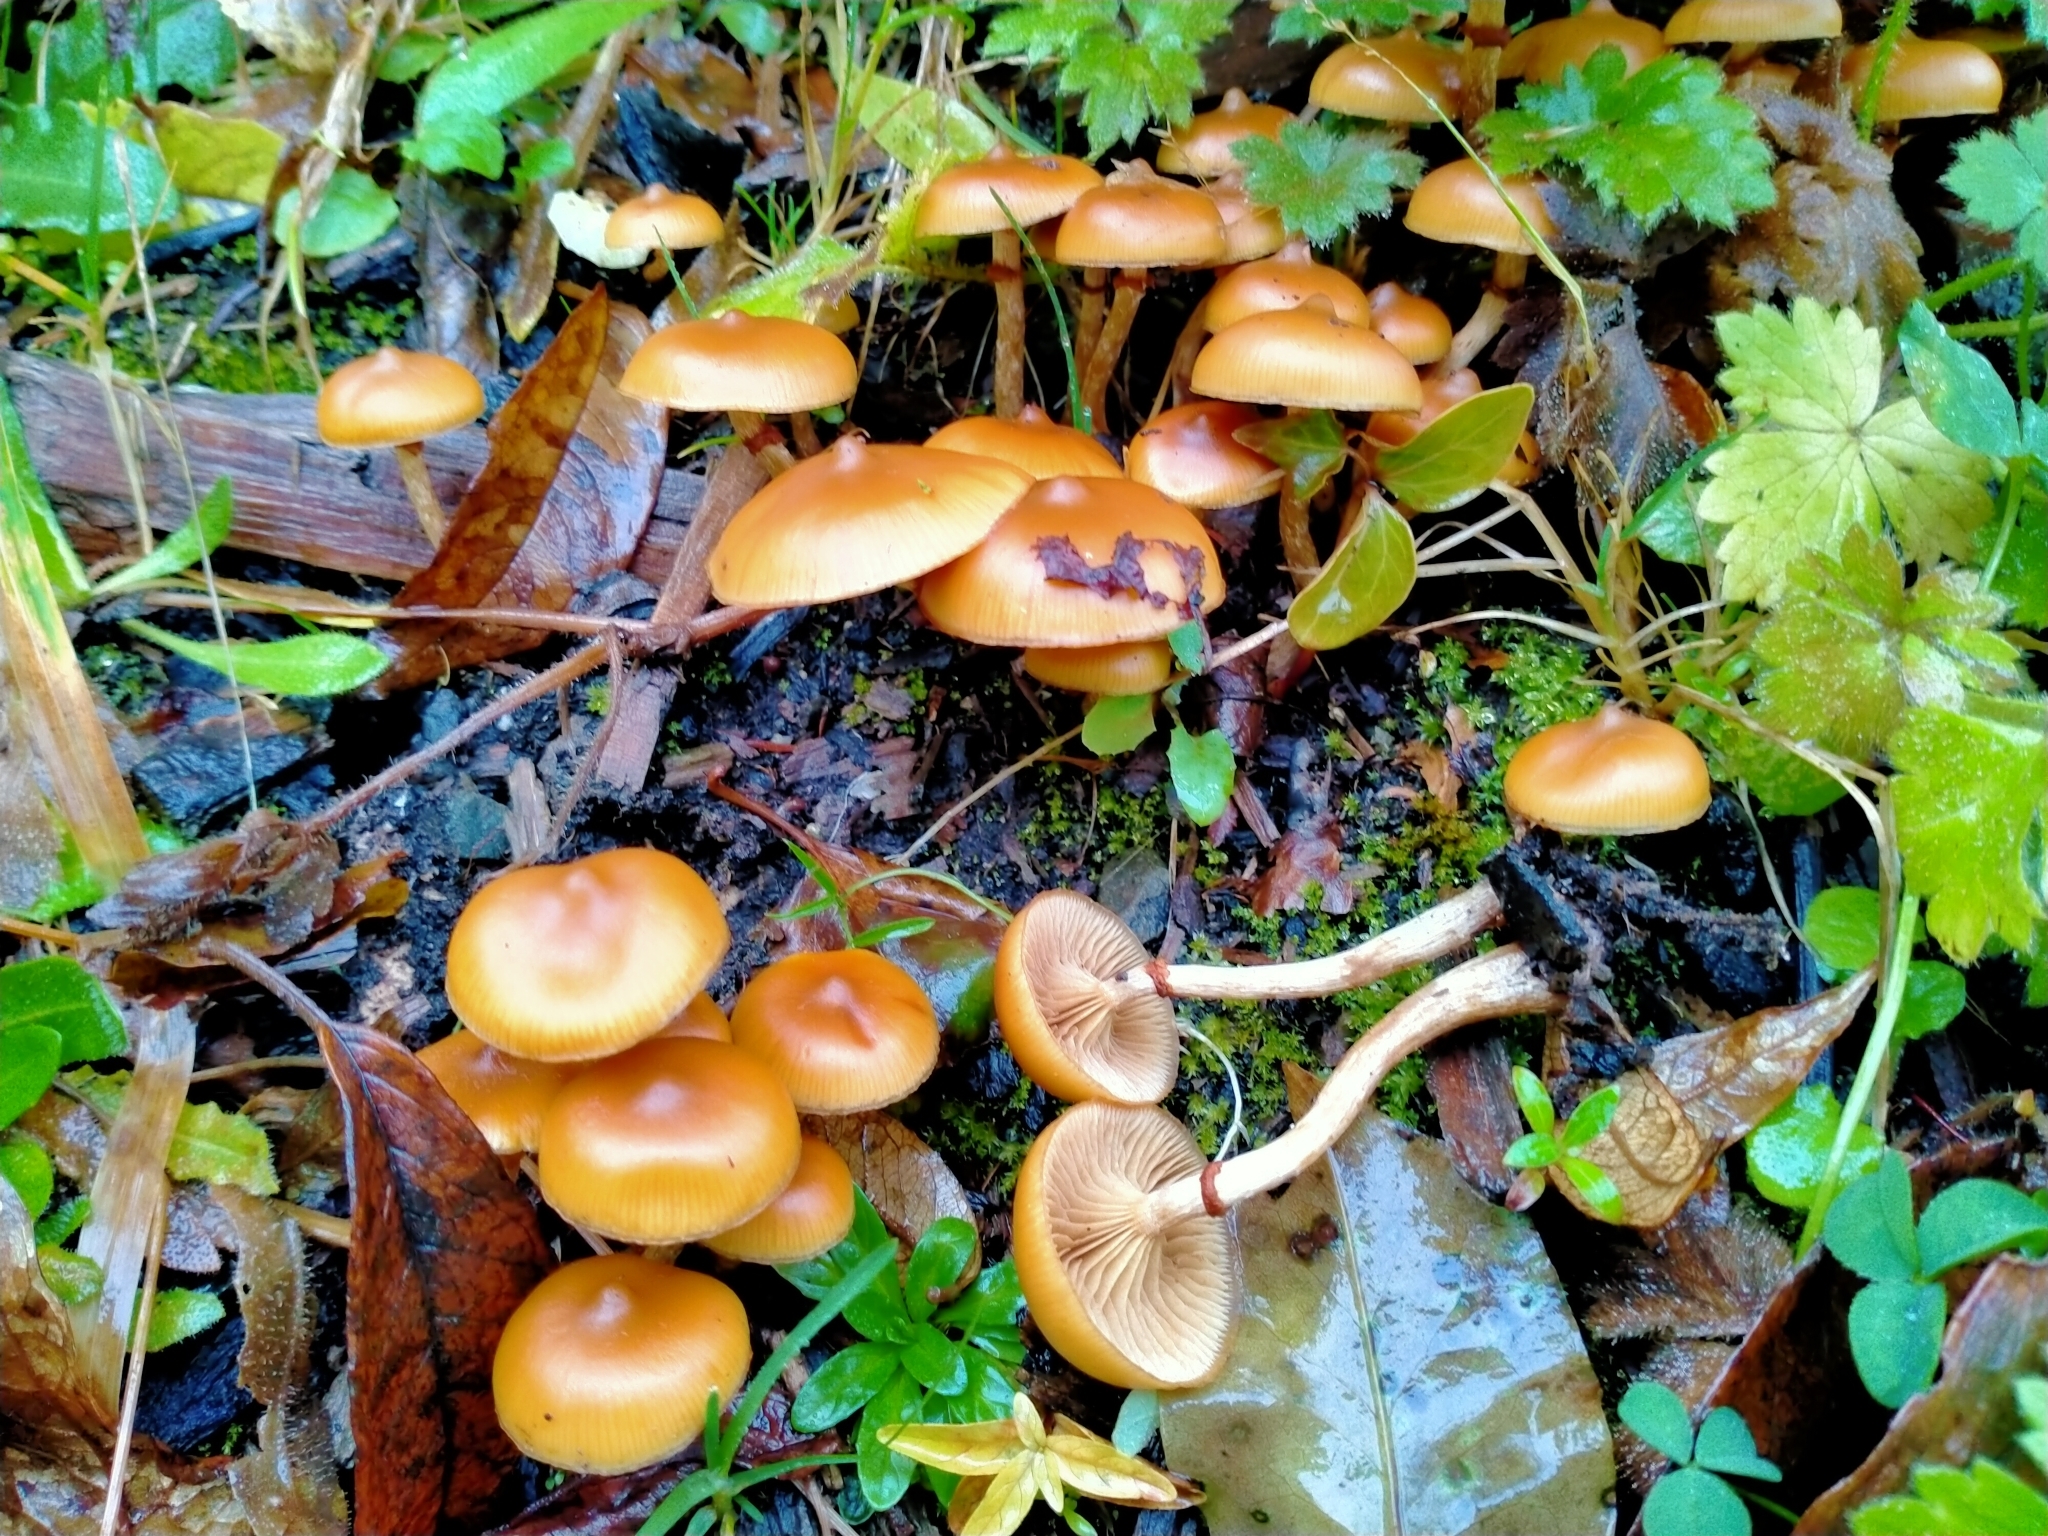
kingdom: Fungi
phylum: Basidiomycota
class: Agaricomycetes
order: Agaricales
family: Hymenogastraceae
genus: Galerina
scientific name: Galerina patagonica
